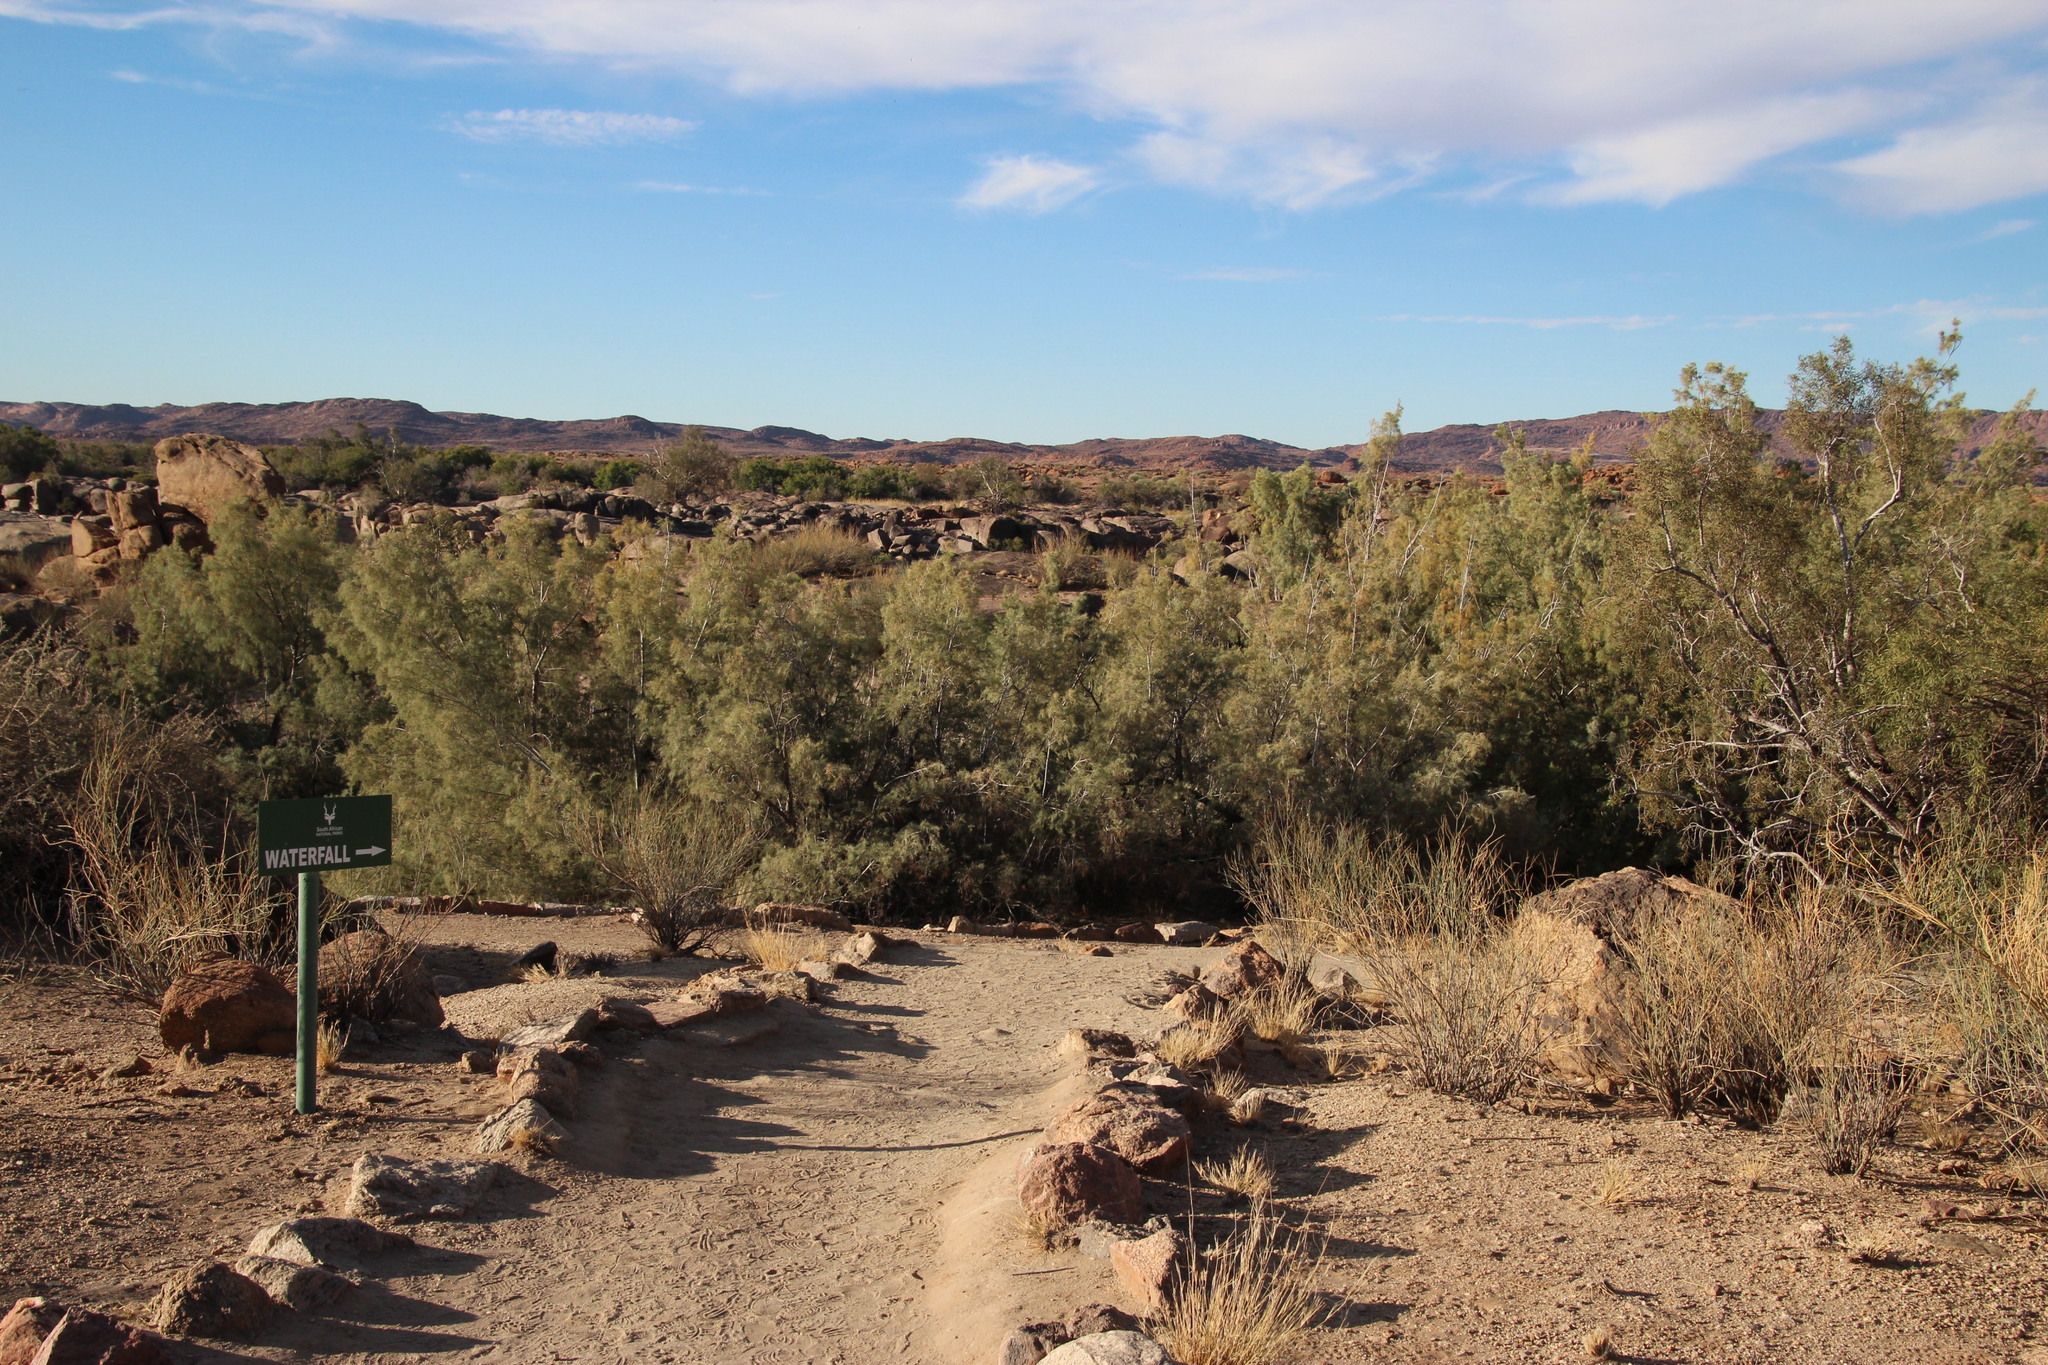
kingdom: Plantae
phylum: Tracheophyta
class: Magnoliopsida
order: Caryophyllales
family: Tamaricaceae
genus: Tamarix
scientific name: Tamarix usneoides
